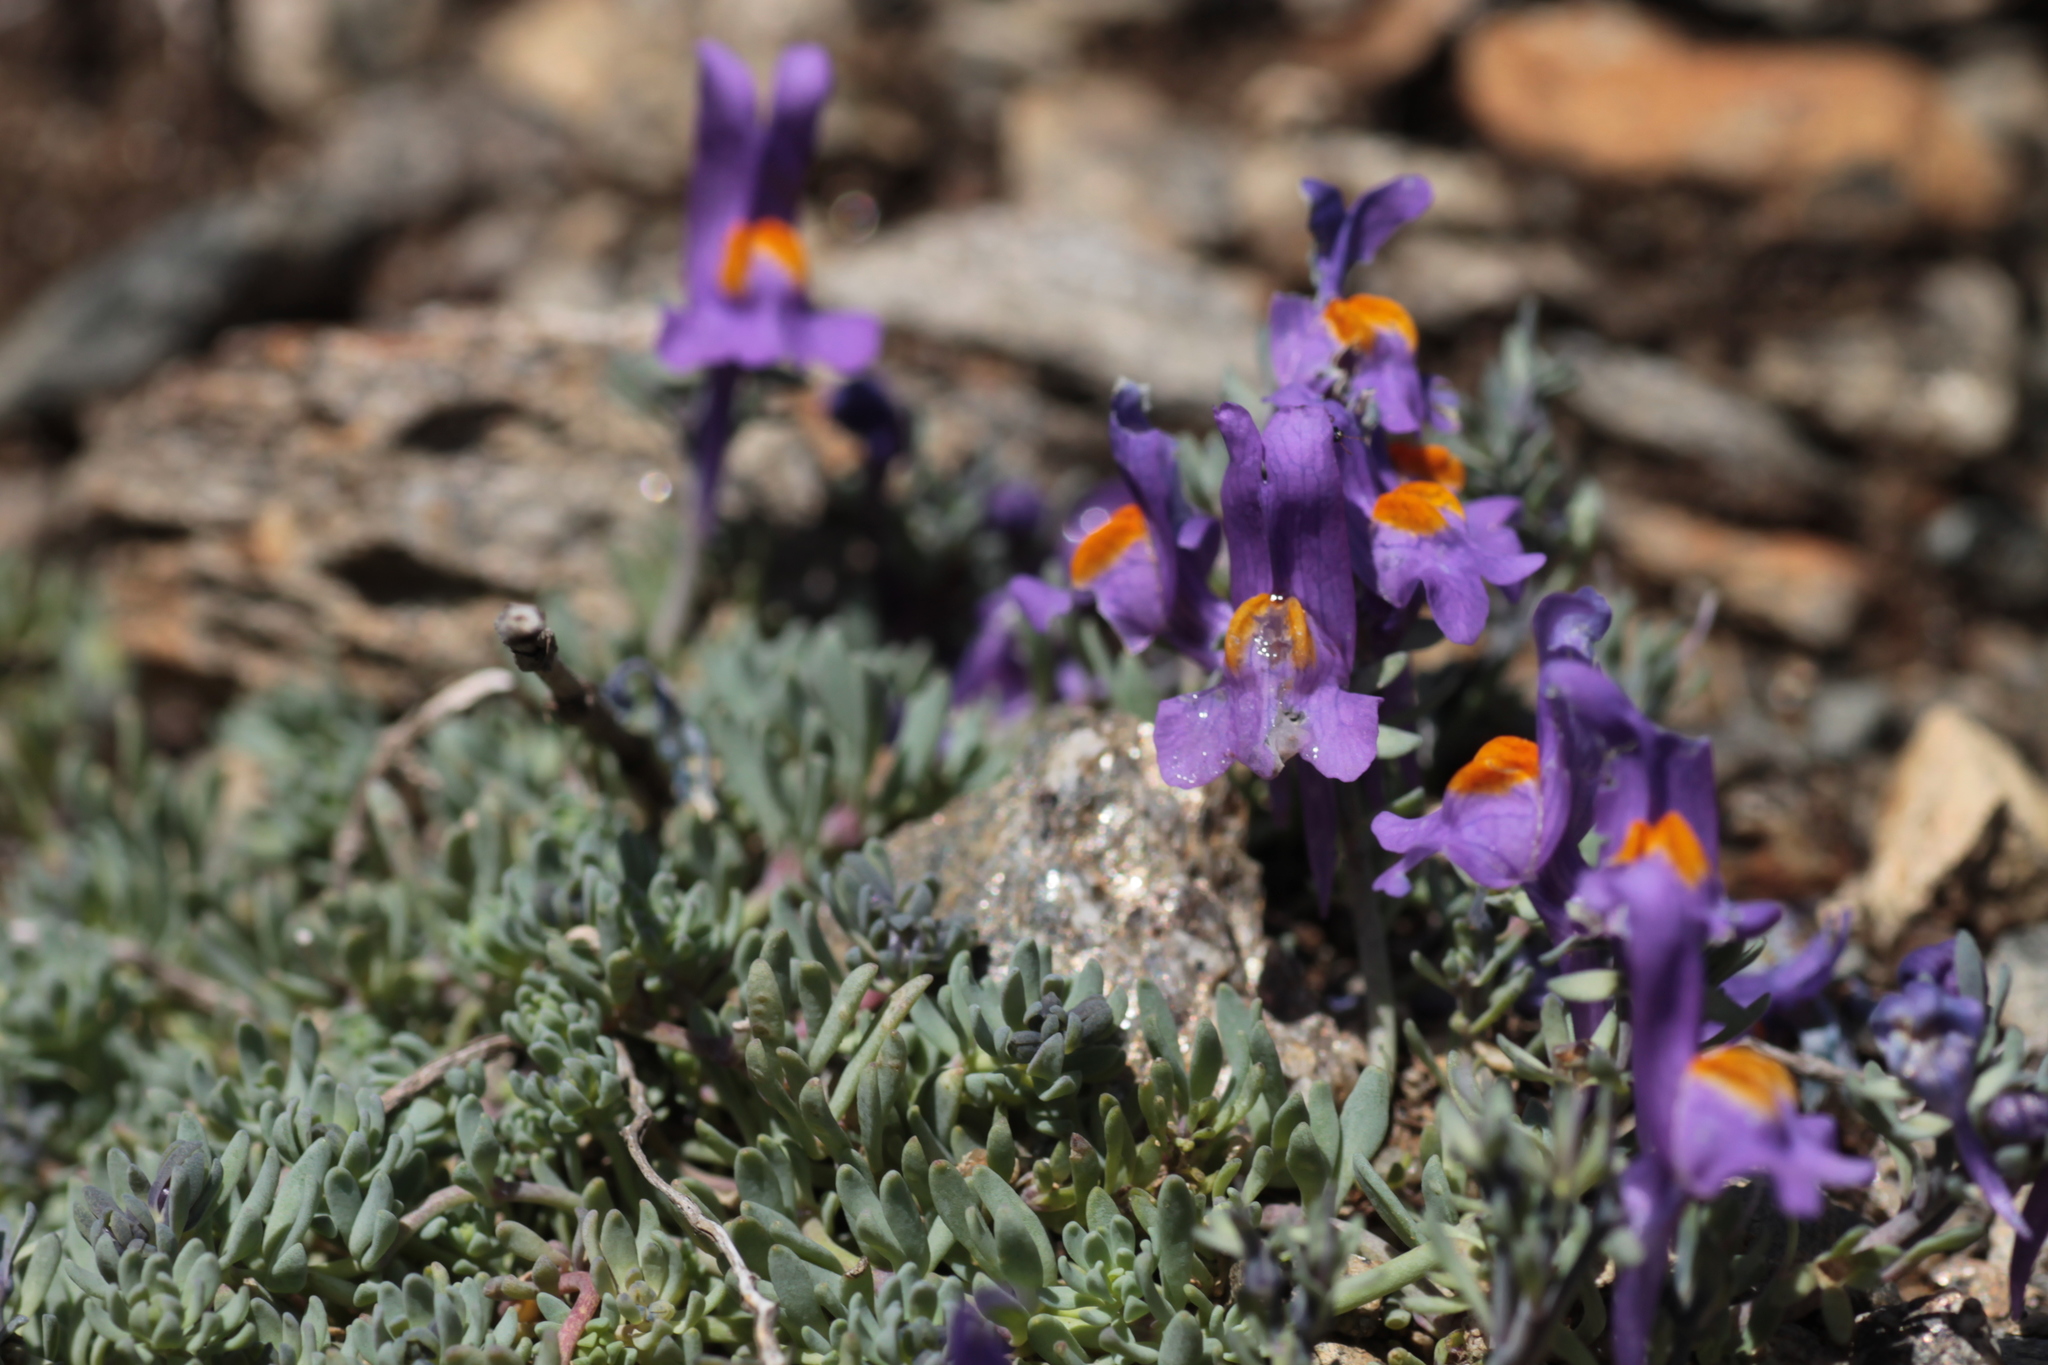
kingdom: Plantae
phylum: Tracheophyta
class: Magnoliopsida
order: Lamiales
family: Plantaginaceae
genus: Linaria
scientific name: Linaria alpina
